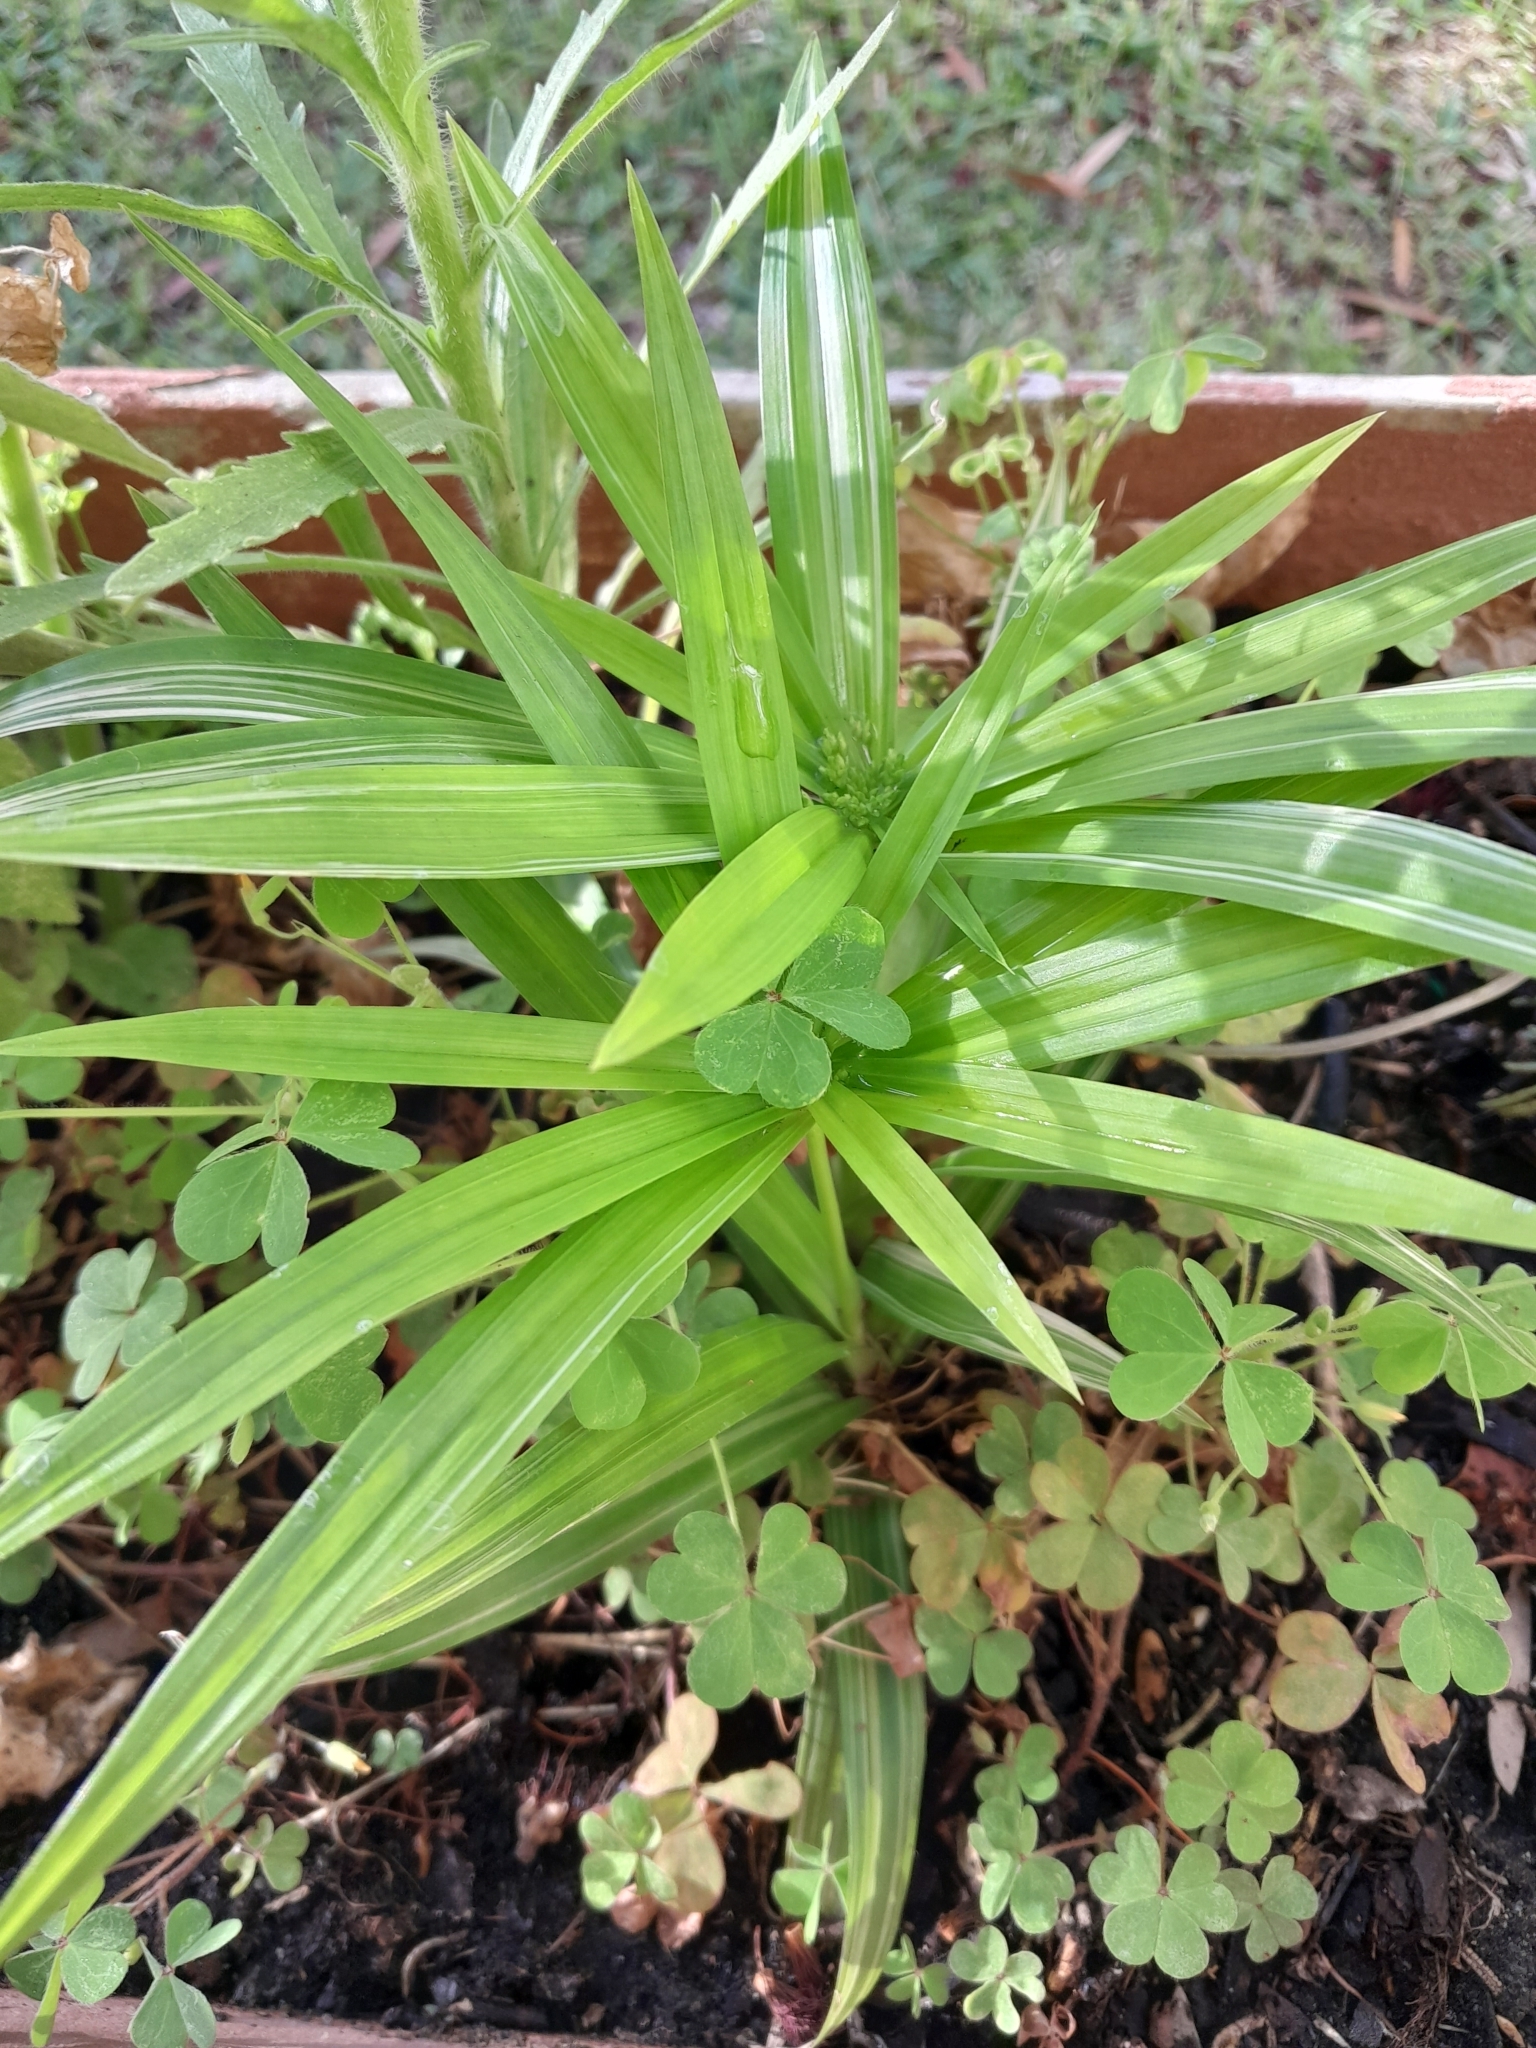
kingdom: Plantae
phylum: Tracheophyta
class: Liliopsida
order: Poales
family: Cyperaceae
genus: Cyperus
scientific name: Cyperus albostriatus
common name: Dwarf umbrella-grass
